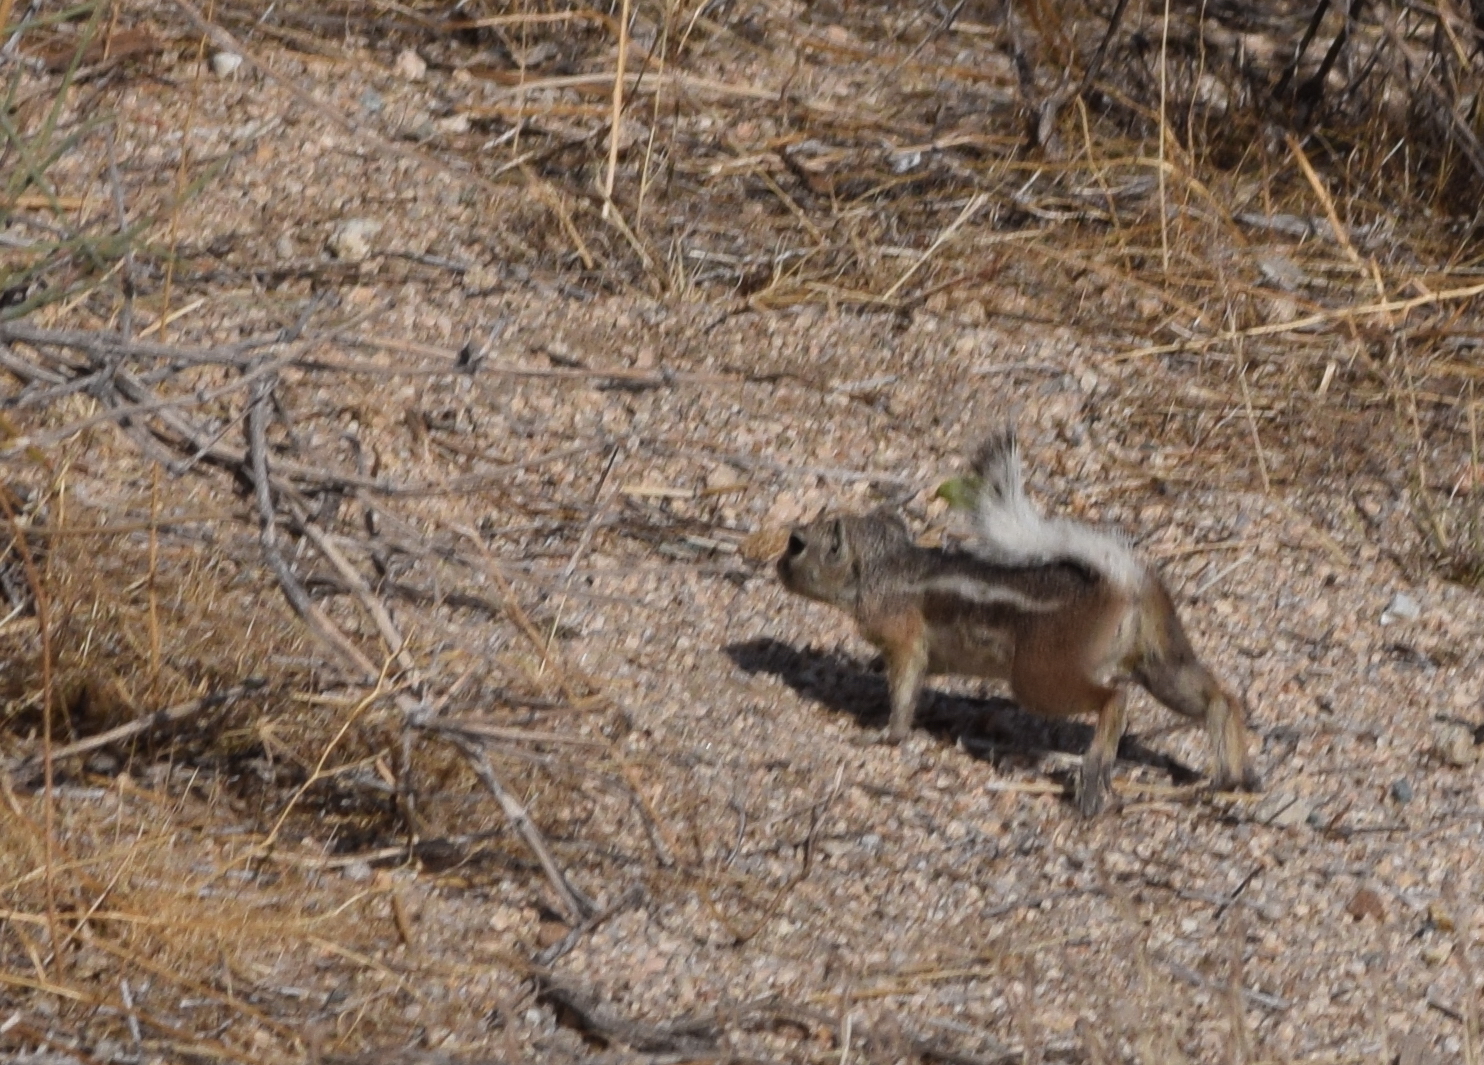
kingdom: Animalia
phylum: Chordata
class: Mammalia
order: Rodentia
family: Sciuridae
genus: Ammospermophilus
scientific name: Ammospermophilus leucurus
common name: White-tailed antelope squirrel
